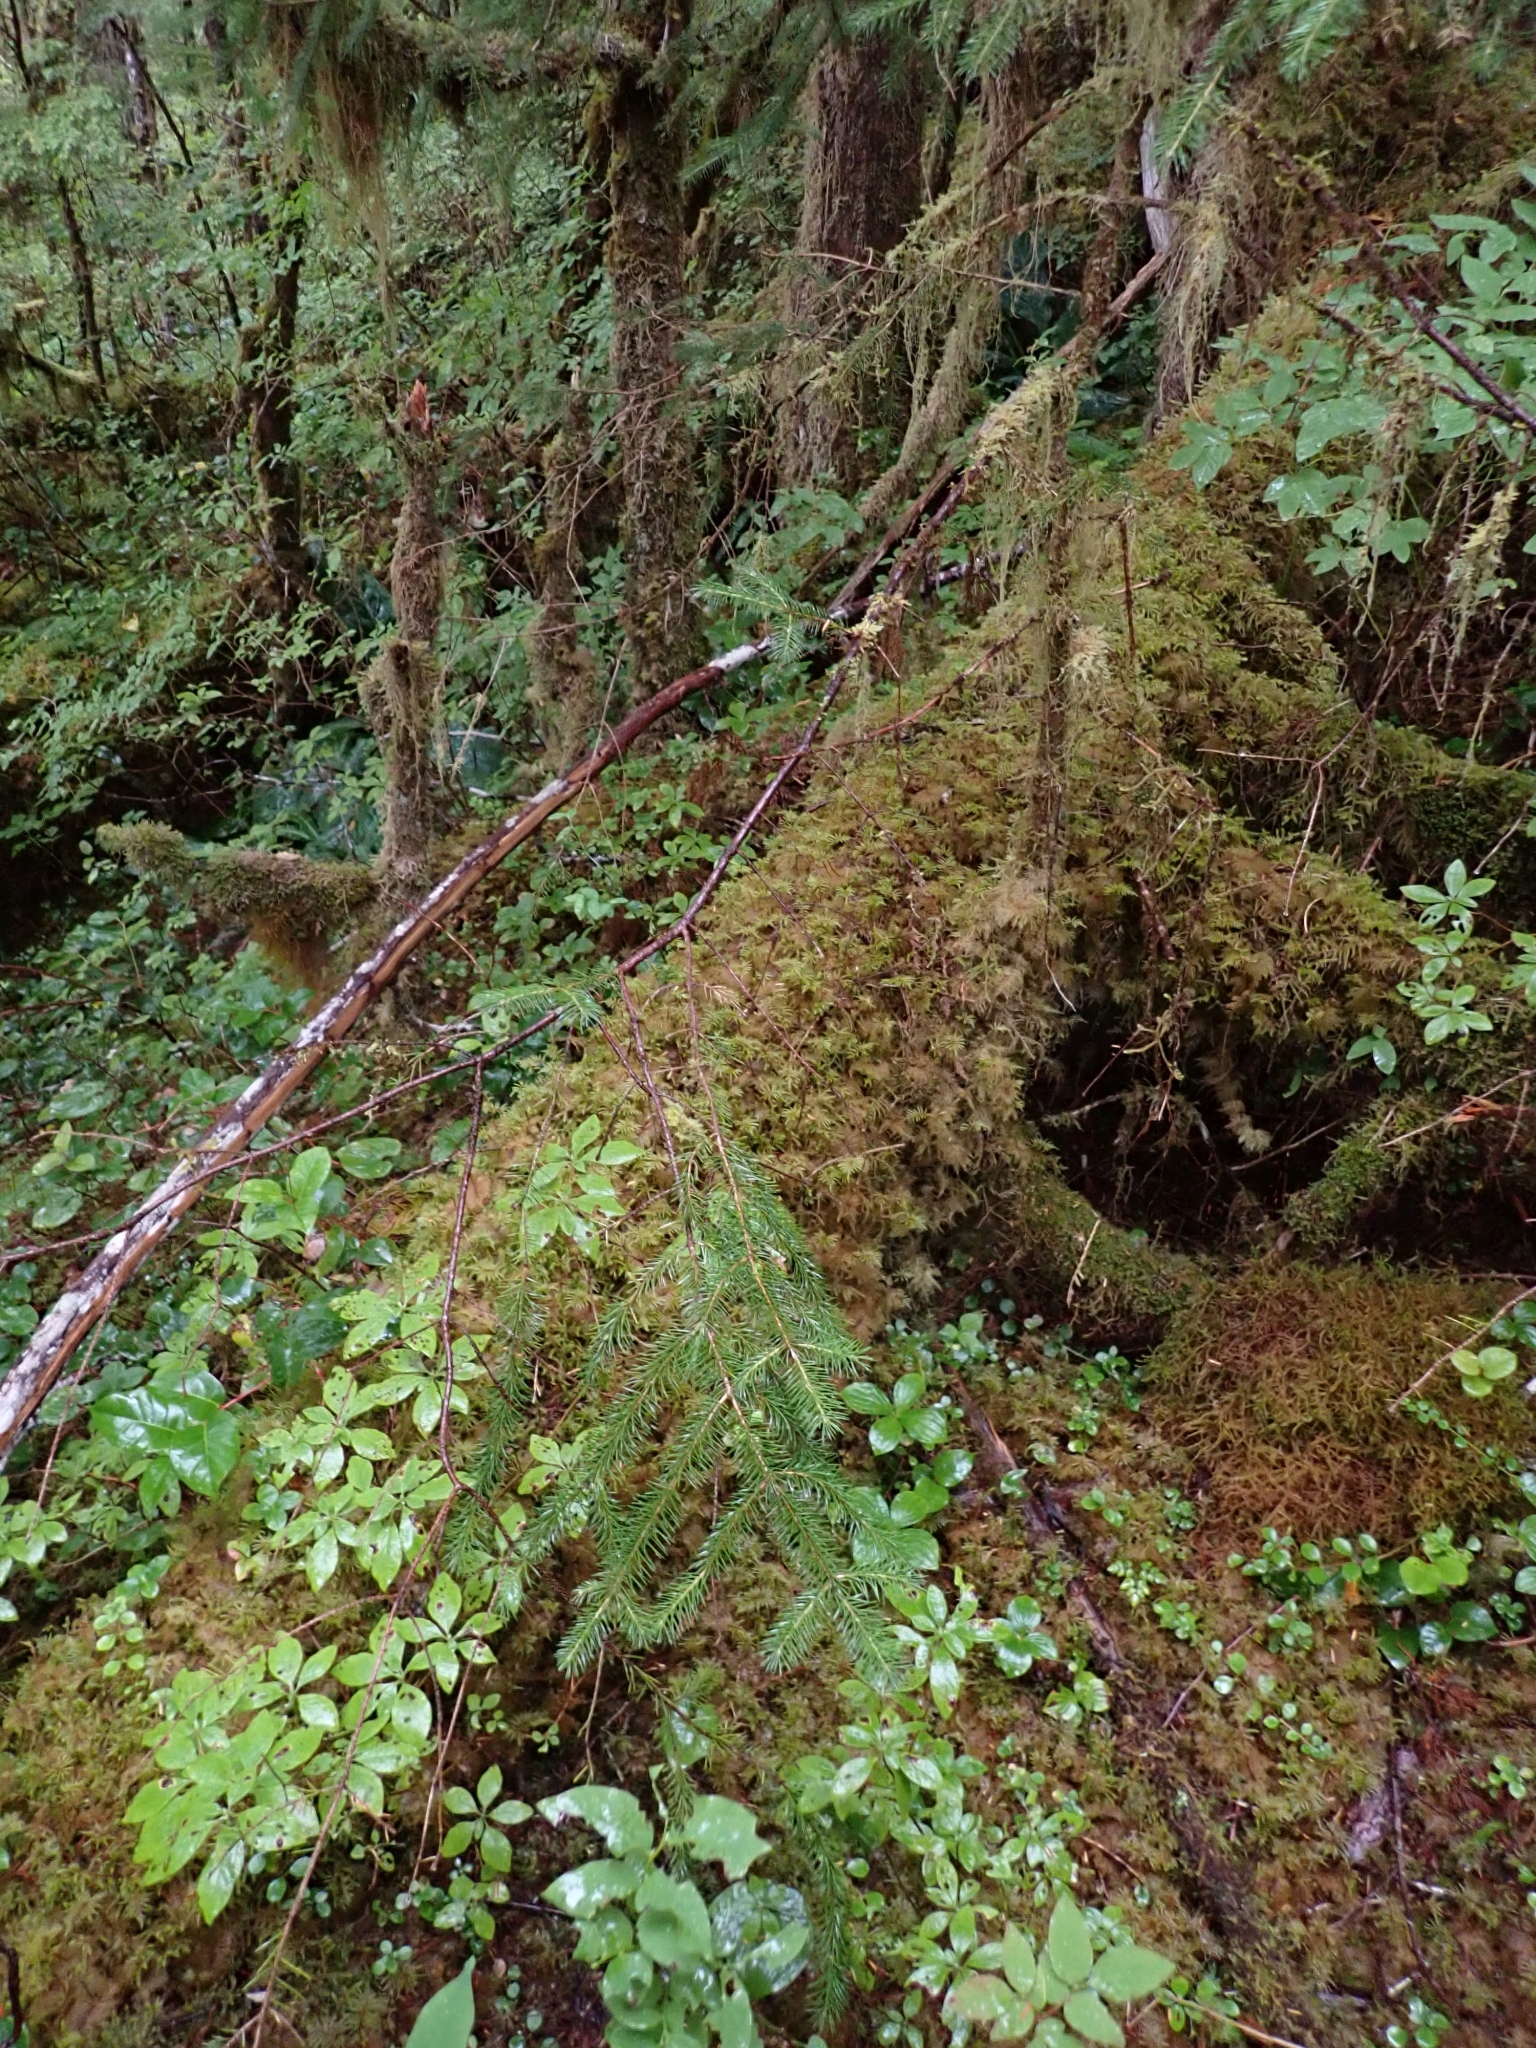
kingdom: Plantae
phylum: Tracheophyta
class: Pinopsida
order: Pinales
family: Pinaceae
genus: Picea
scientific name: Picea sitchensis
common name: Sitka spruce
